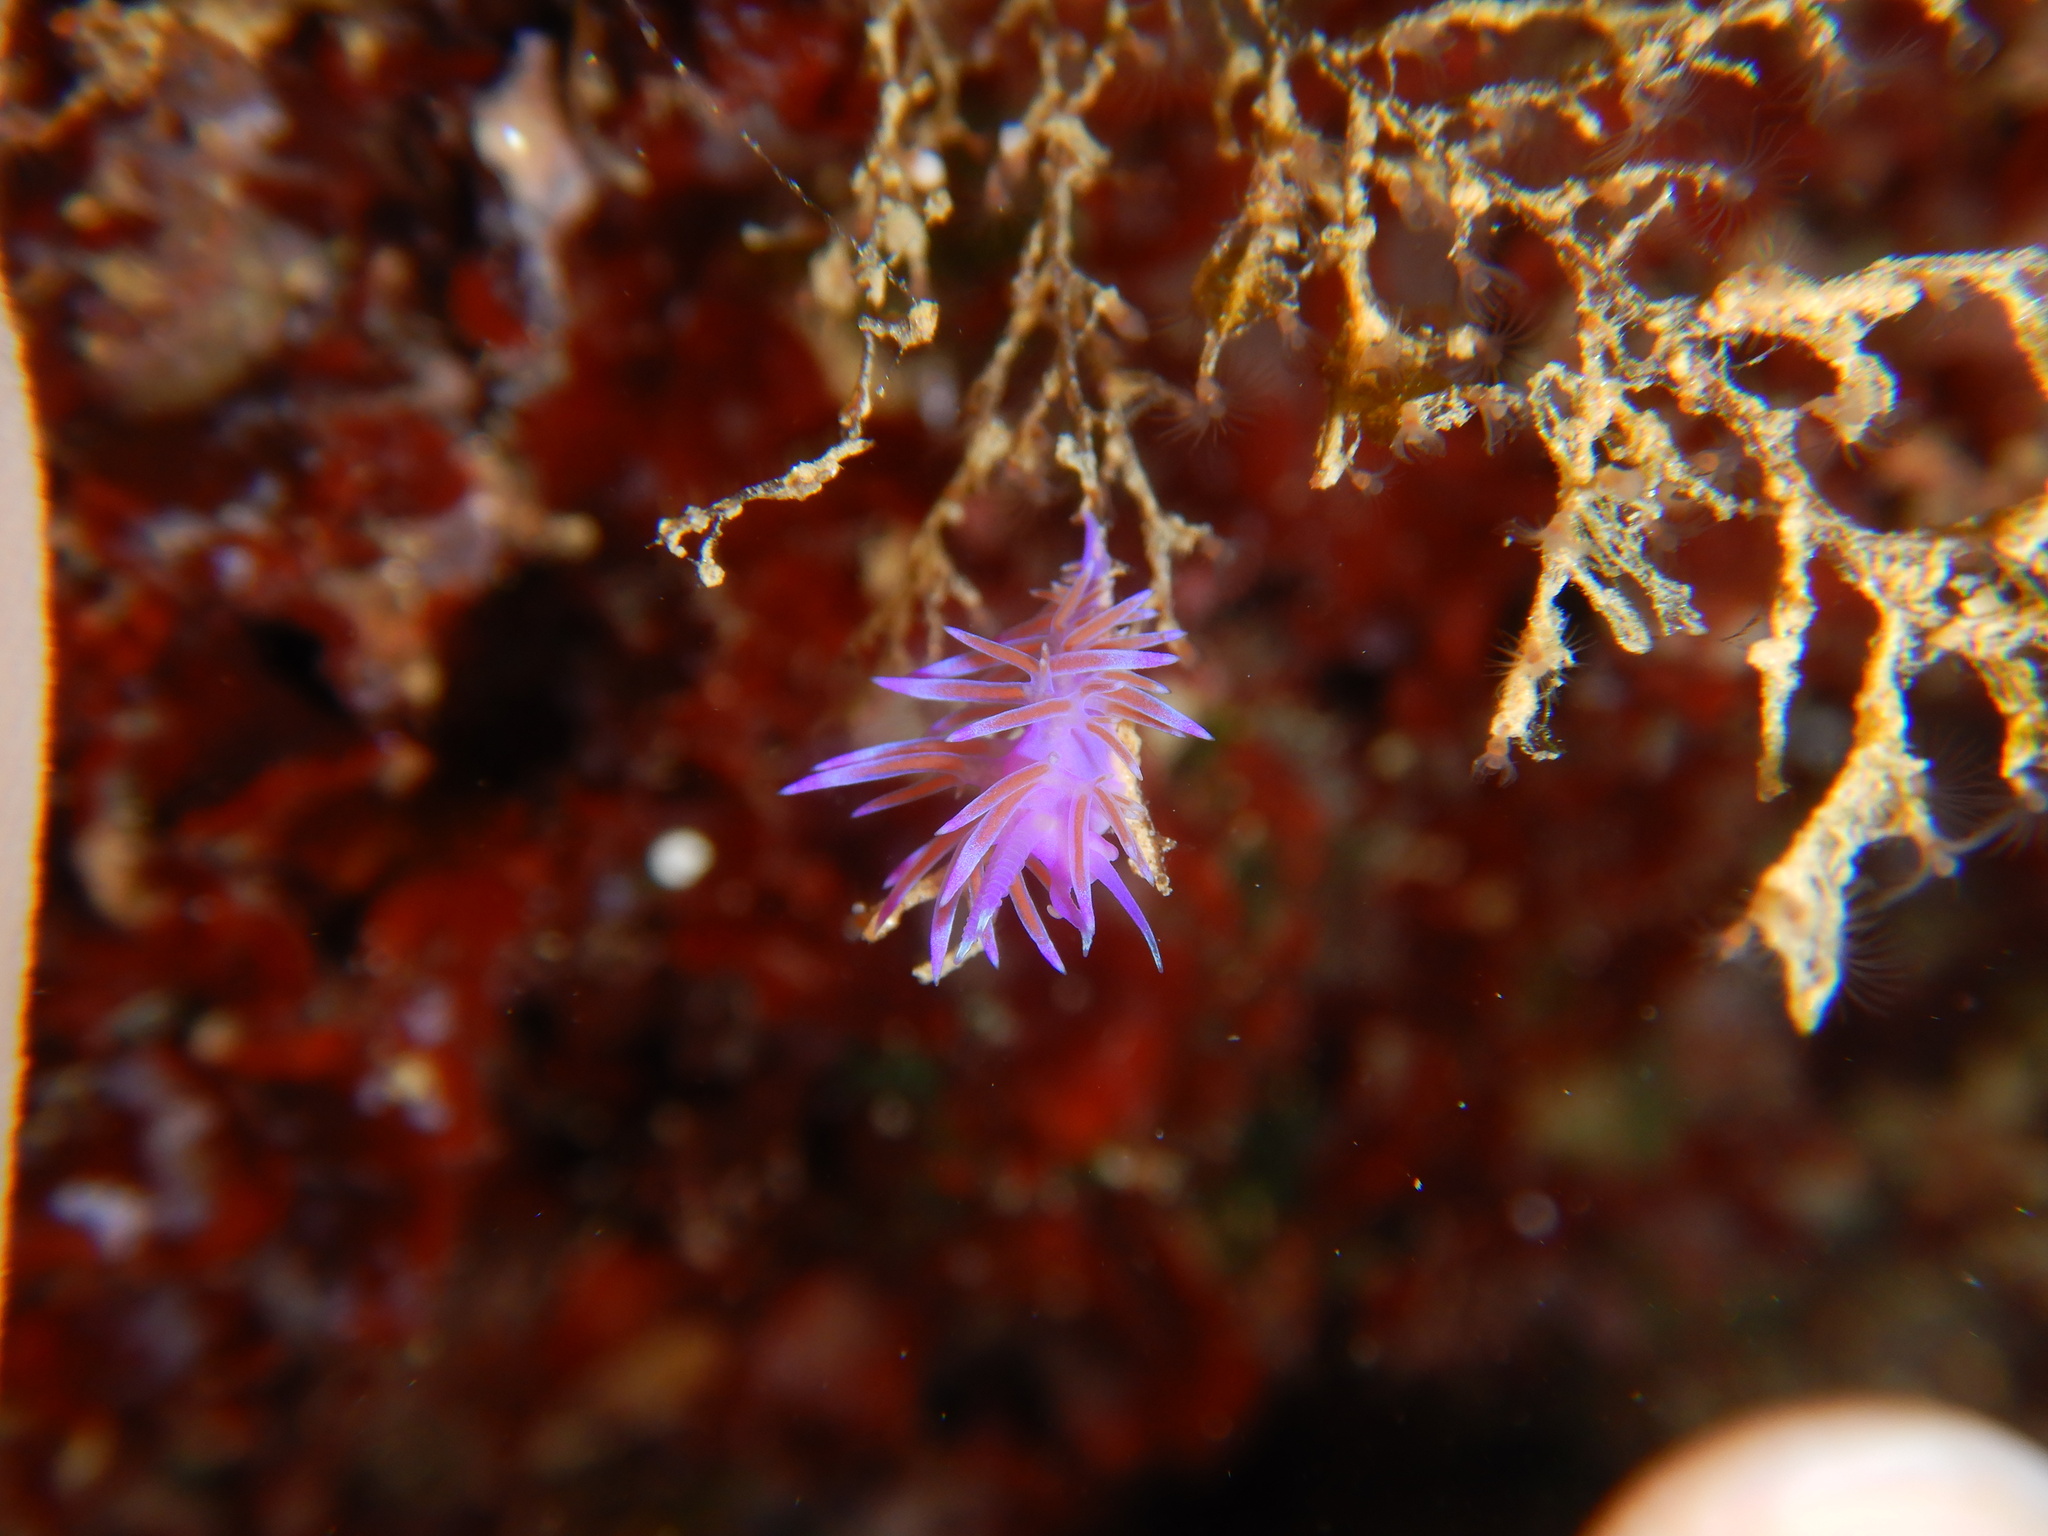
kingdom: Animalia
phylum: Mollusca
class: Gastropoda
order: Nudibranchia
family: Flabellinidae
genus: Flabellina
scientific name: Flabellina affinis
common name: Mediterranean violet aeolid
